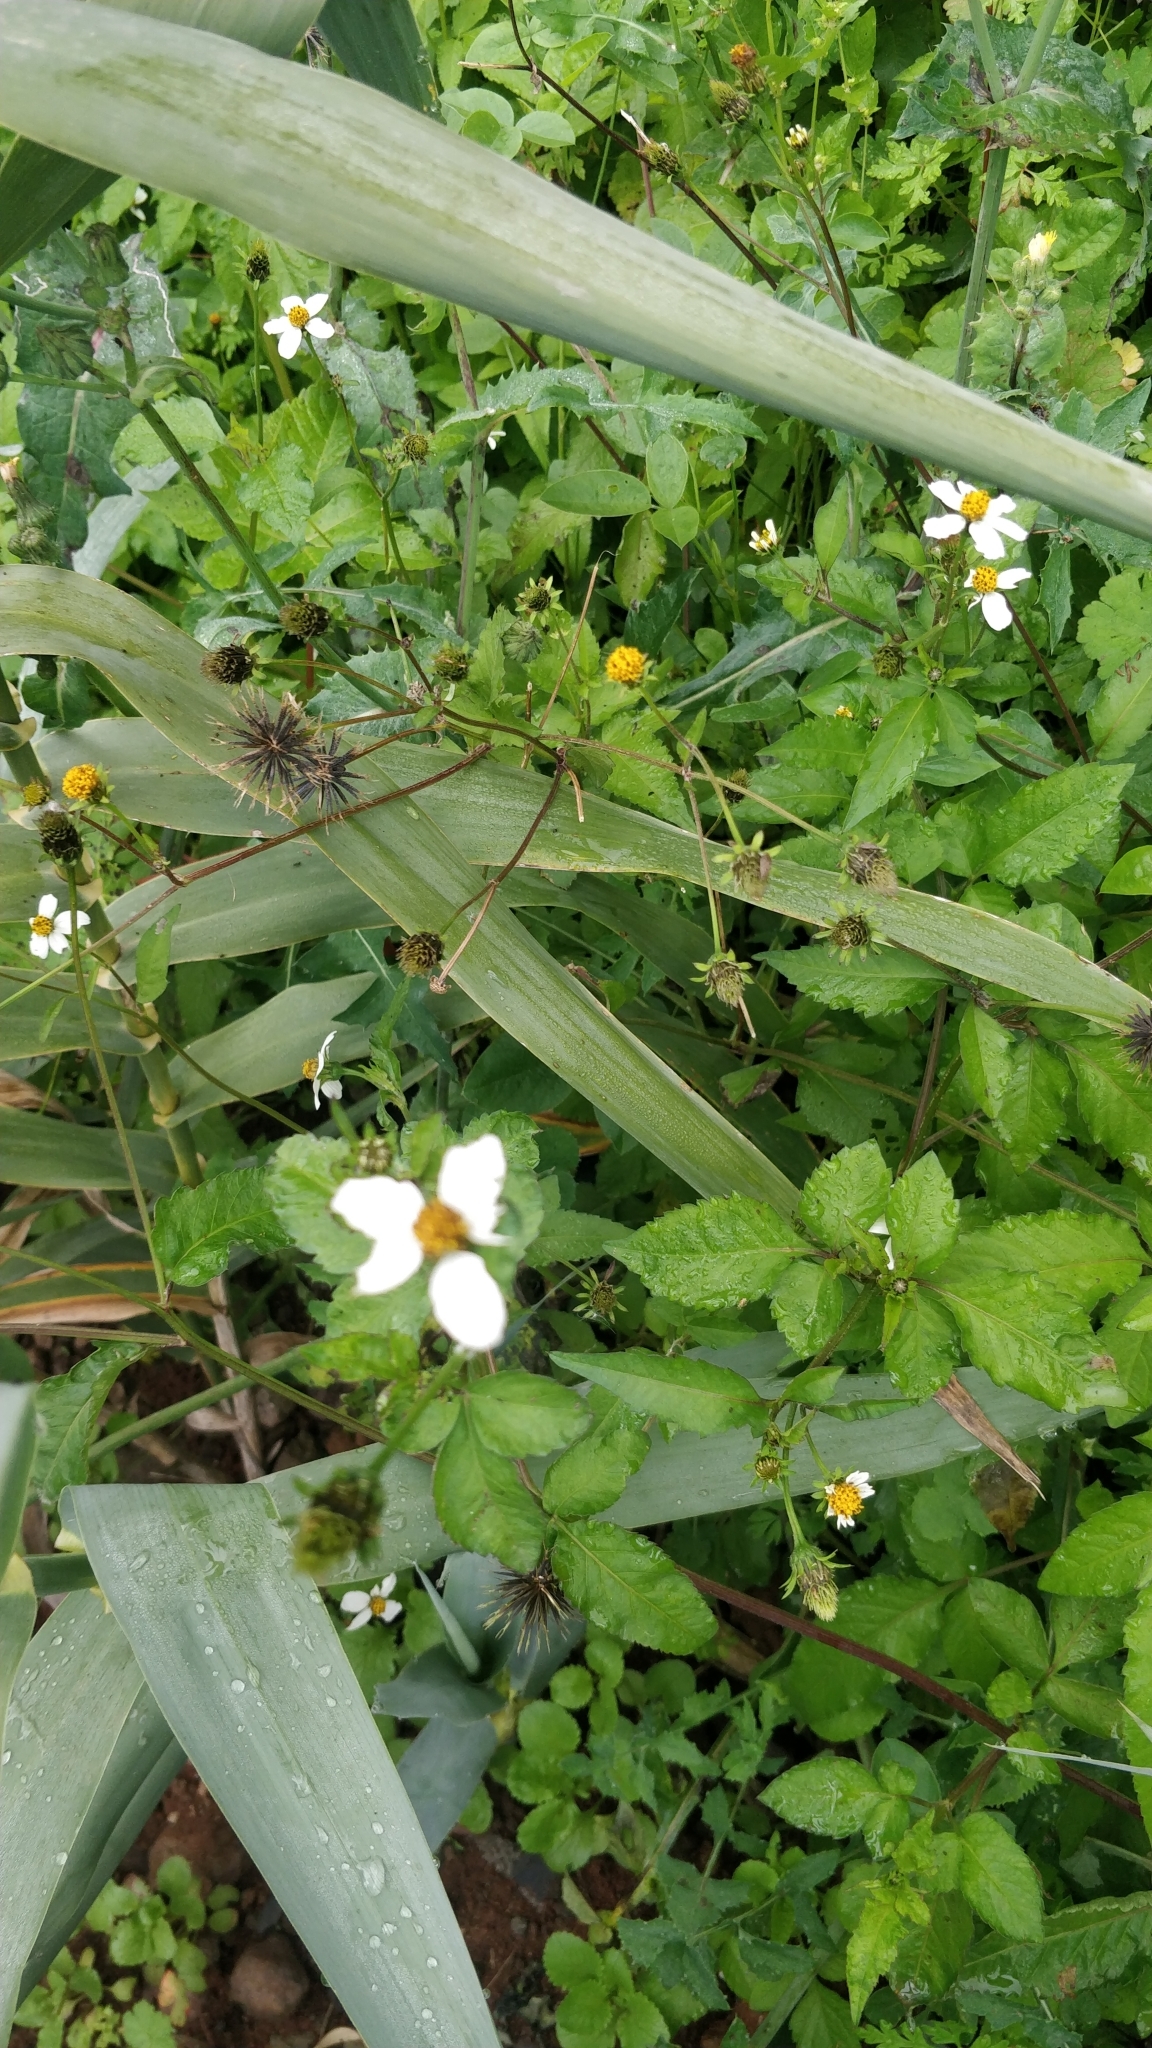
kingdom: Plantae
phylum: Tracheophyta
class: Magnoliopsida
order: Asterales
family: Asteraceae
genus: Bidens
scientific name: Bidens pilosa
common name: Black-jack
